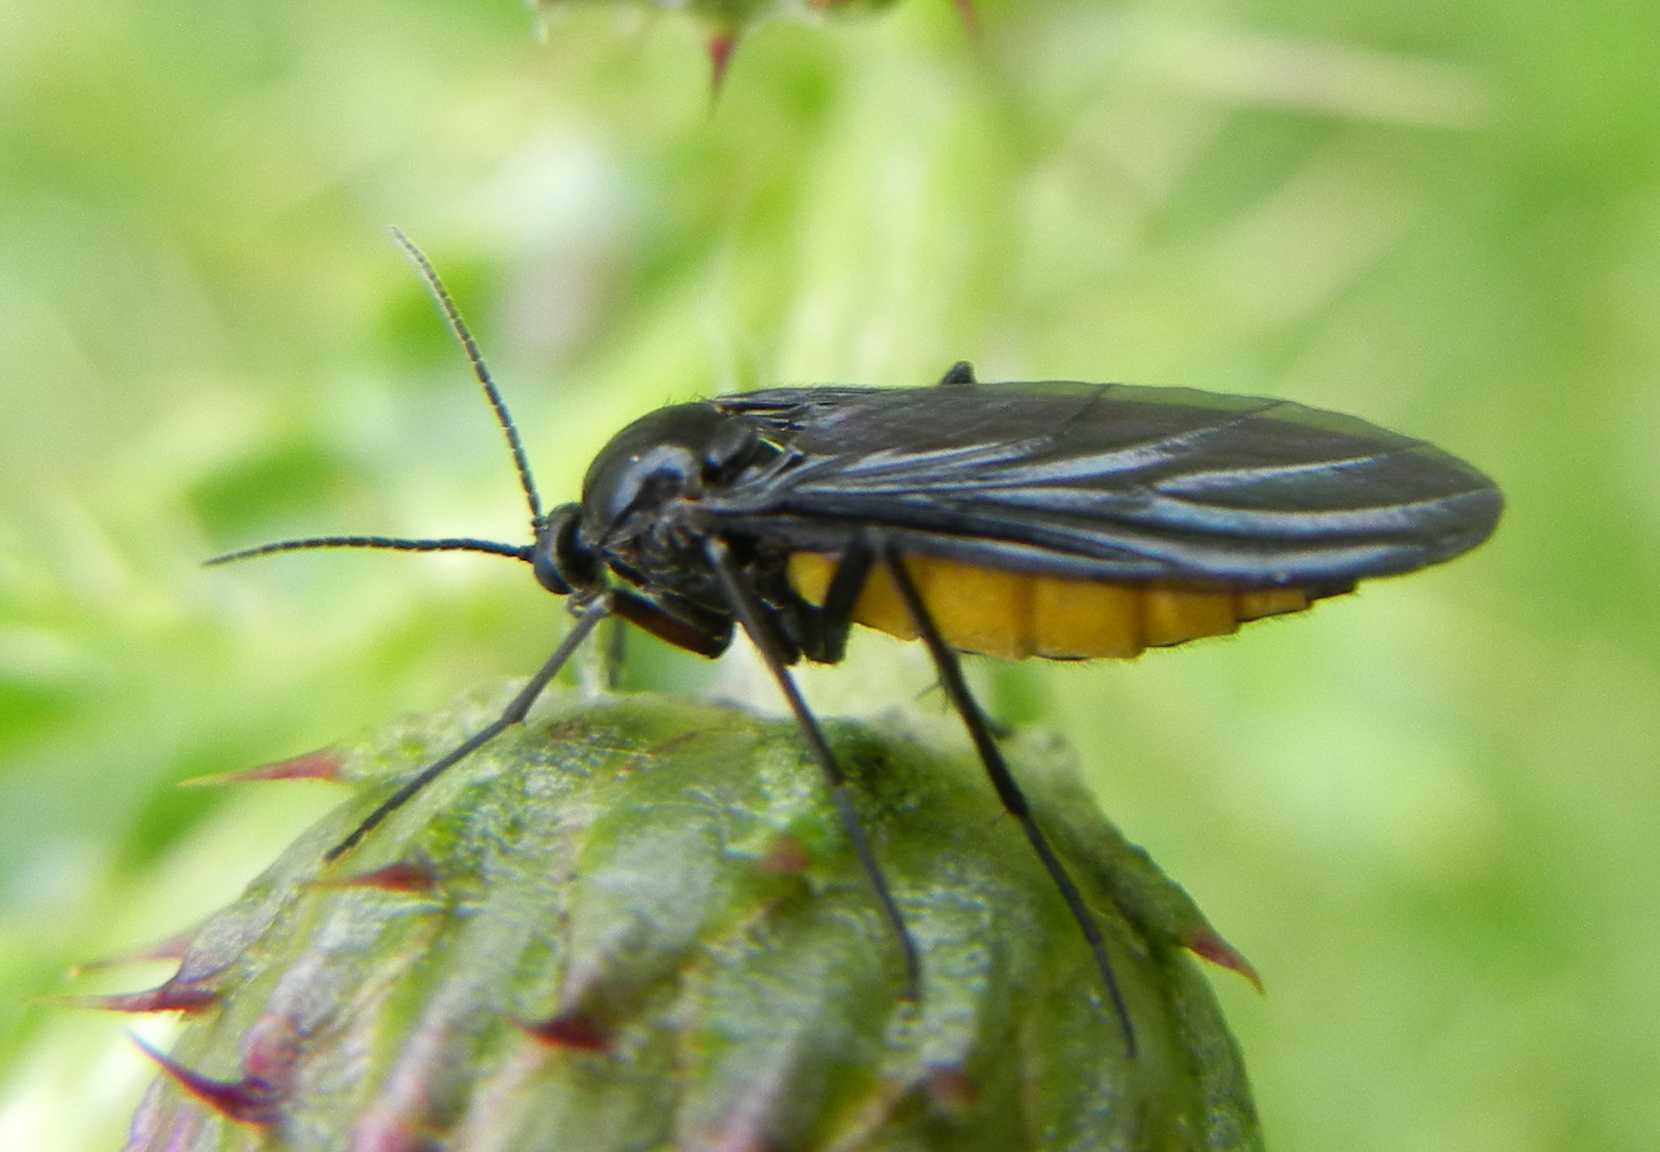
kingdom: Animalia
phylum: Arthropoda
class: Insecta
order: Diptera
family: Sciaridae
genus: Sciara
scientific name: Sciara hemerobioides
